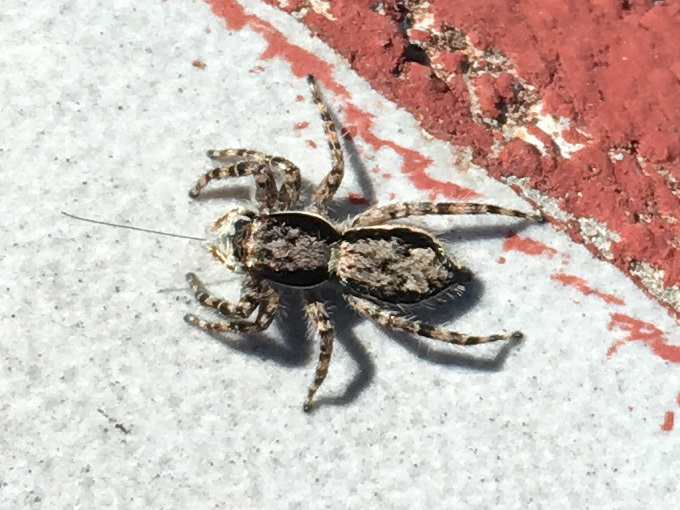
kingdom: Animalia
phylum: Arthropoda
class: Arachnida
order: Araneae
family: Salticidae
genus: Menemerus
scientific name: Menemerus bivittatus
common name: Gray wall jumper
